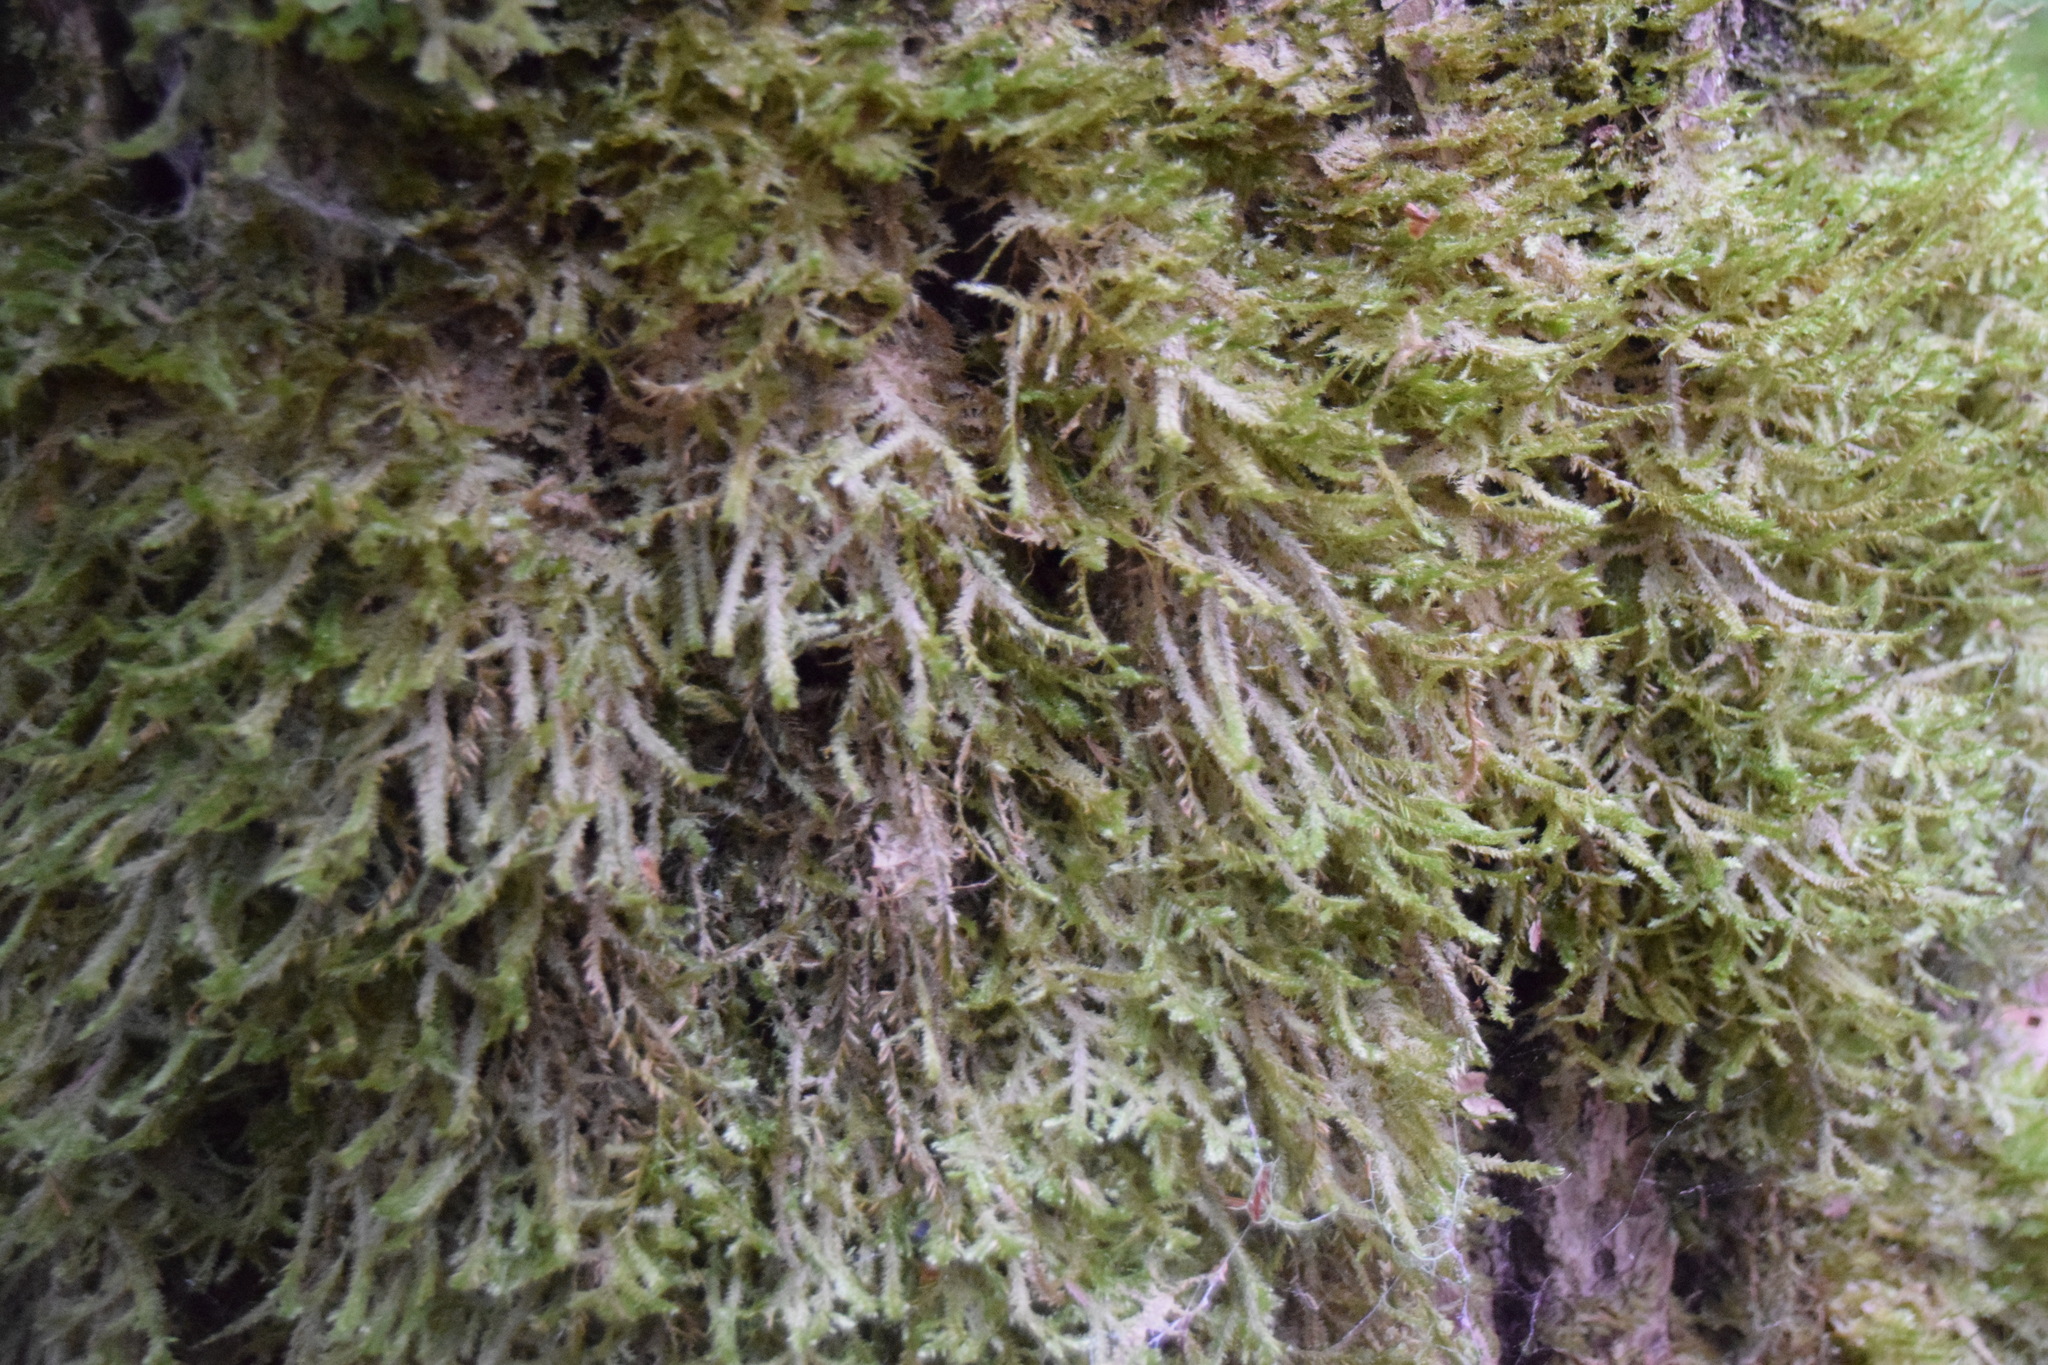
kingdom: Plantae
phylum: Bryophyta
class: Bryopsida
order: Hypnales
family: Neckeraceae
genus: Neckera
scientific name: Neckera pennata
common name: Feathery neckera
